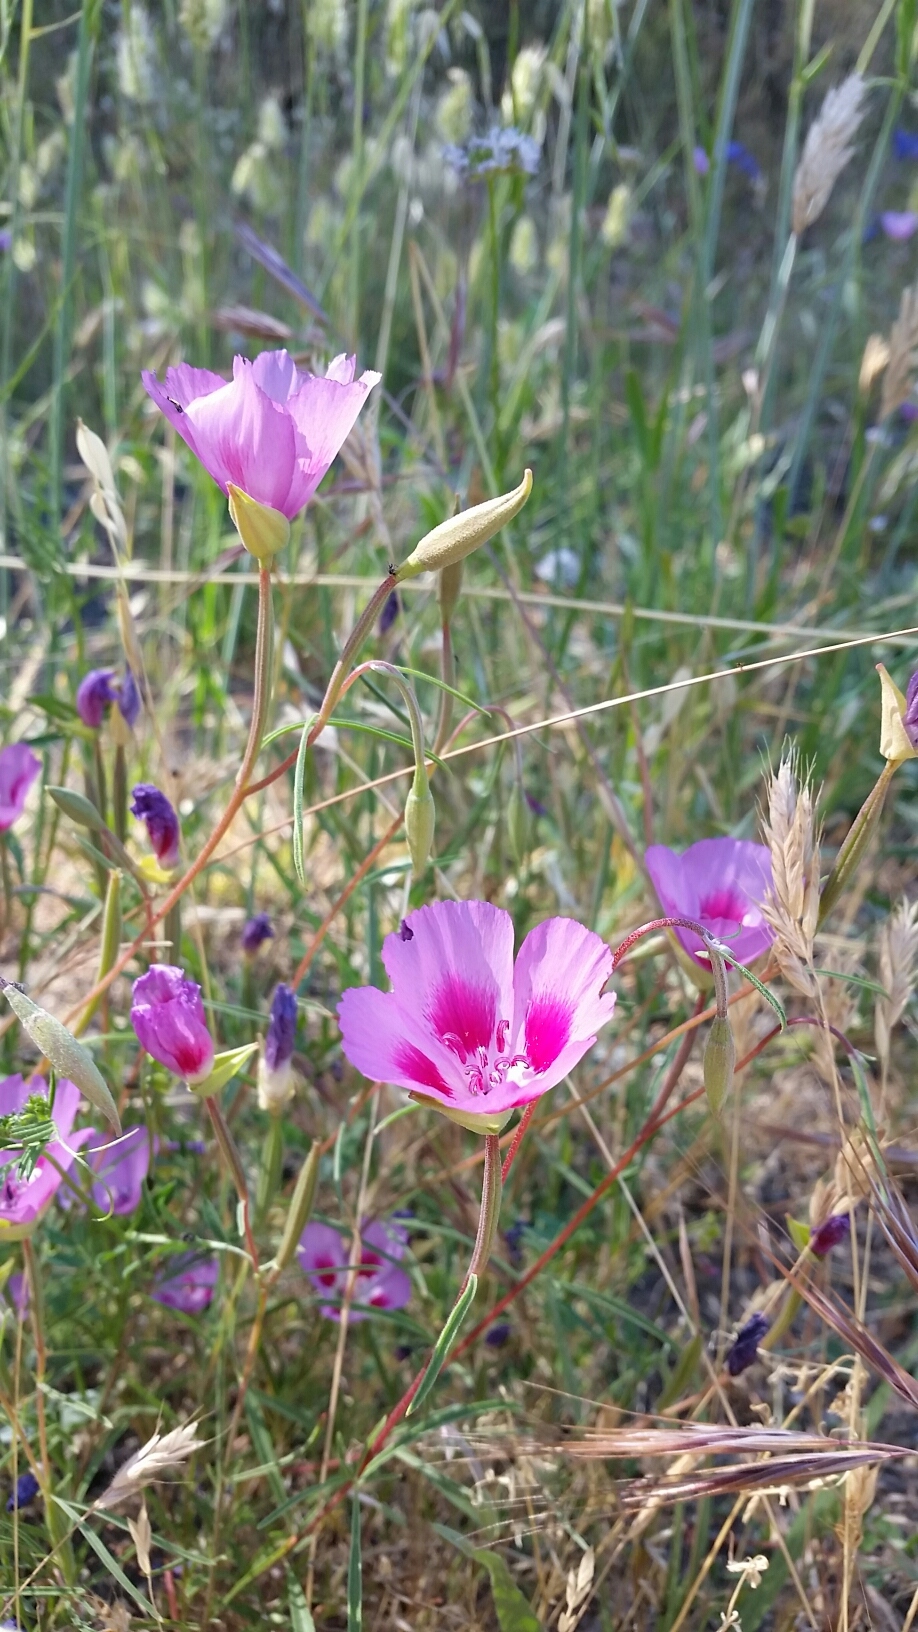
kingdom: Plantae
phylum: Tracheophyta
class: Magnoliopsida
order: Myrtales
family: Onagraceae
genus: Clarkia
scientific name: Clarkia gracilis
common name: Graceful clarkia
